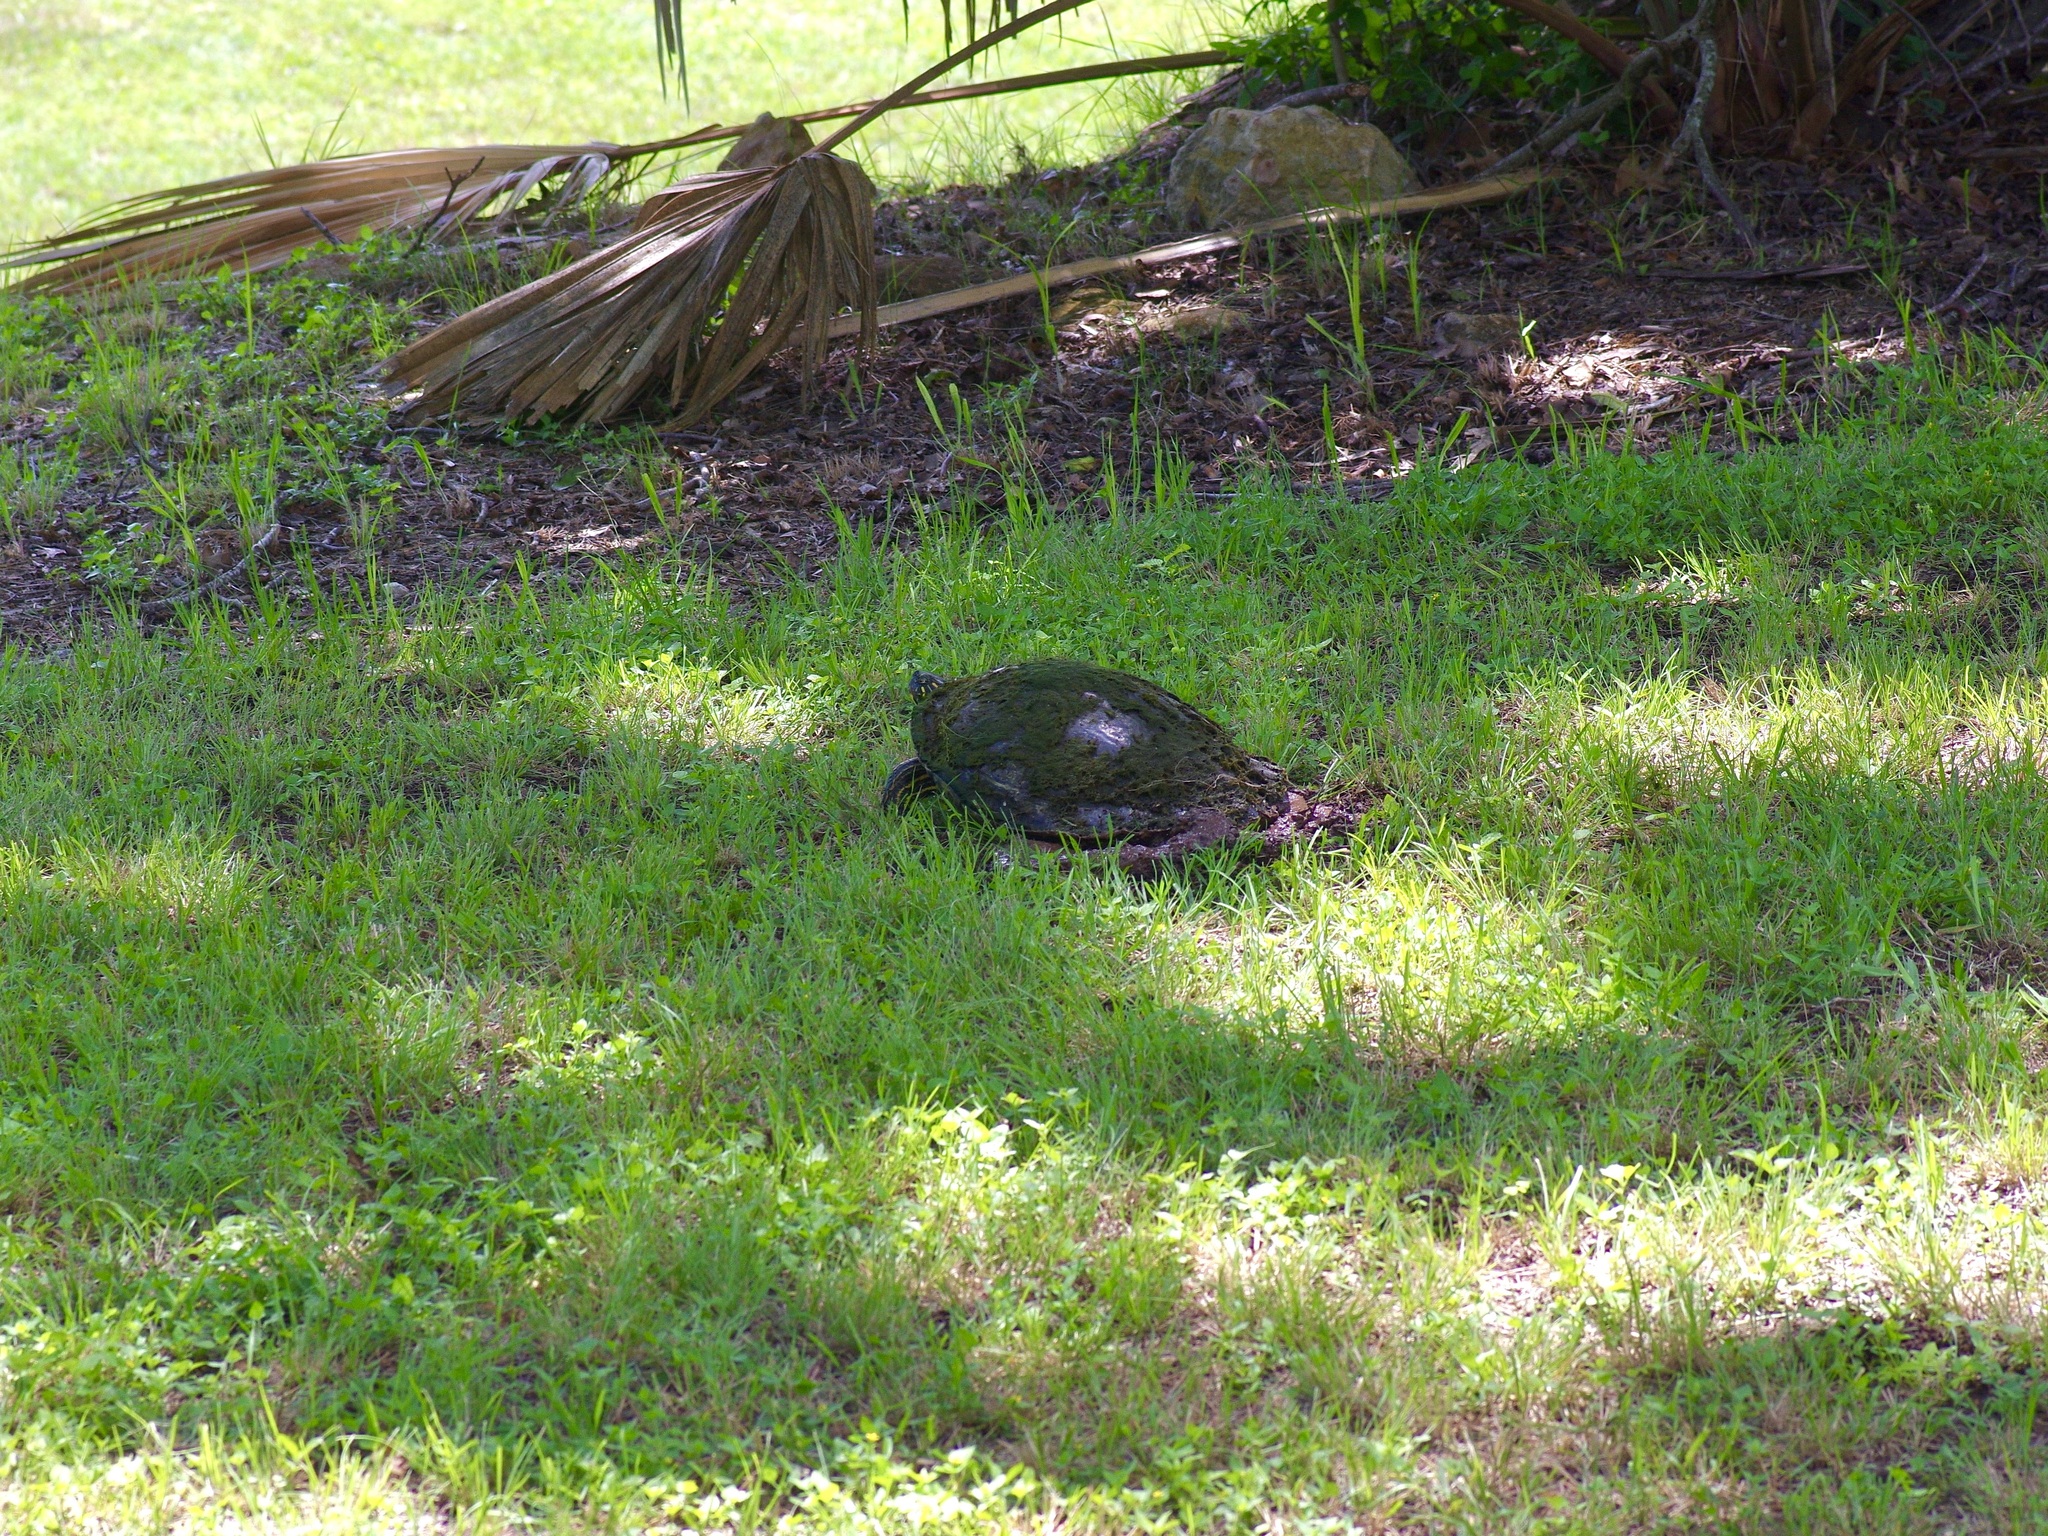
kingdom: Animalia
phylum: Chordata
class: Testudines
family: Emydidae
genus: Pseudemys
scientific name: Pseudemys texana
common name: Texas river cooter
